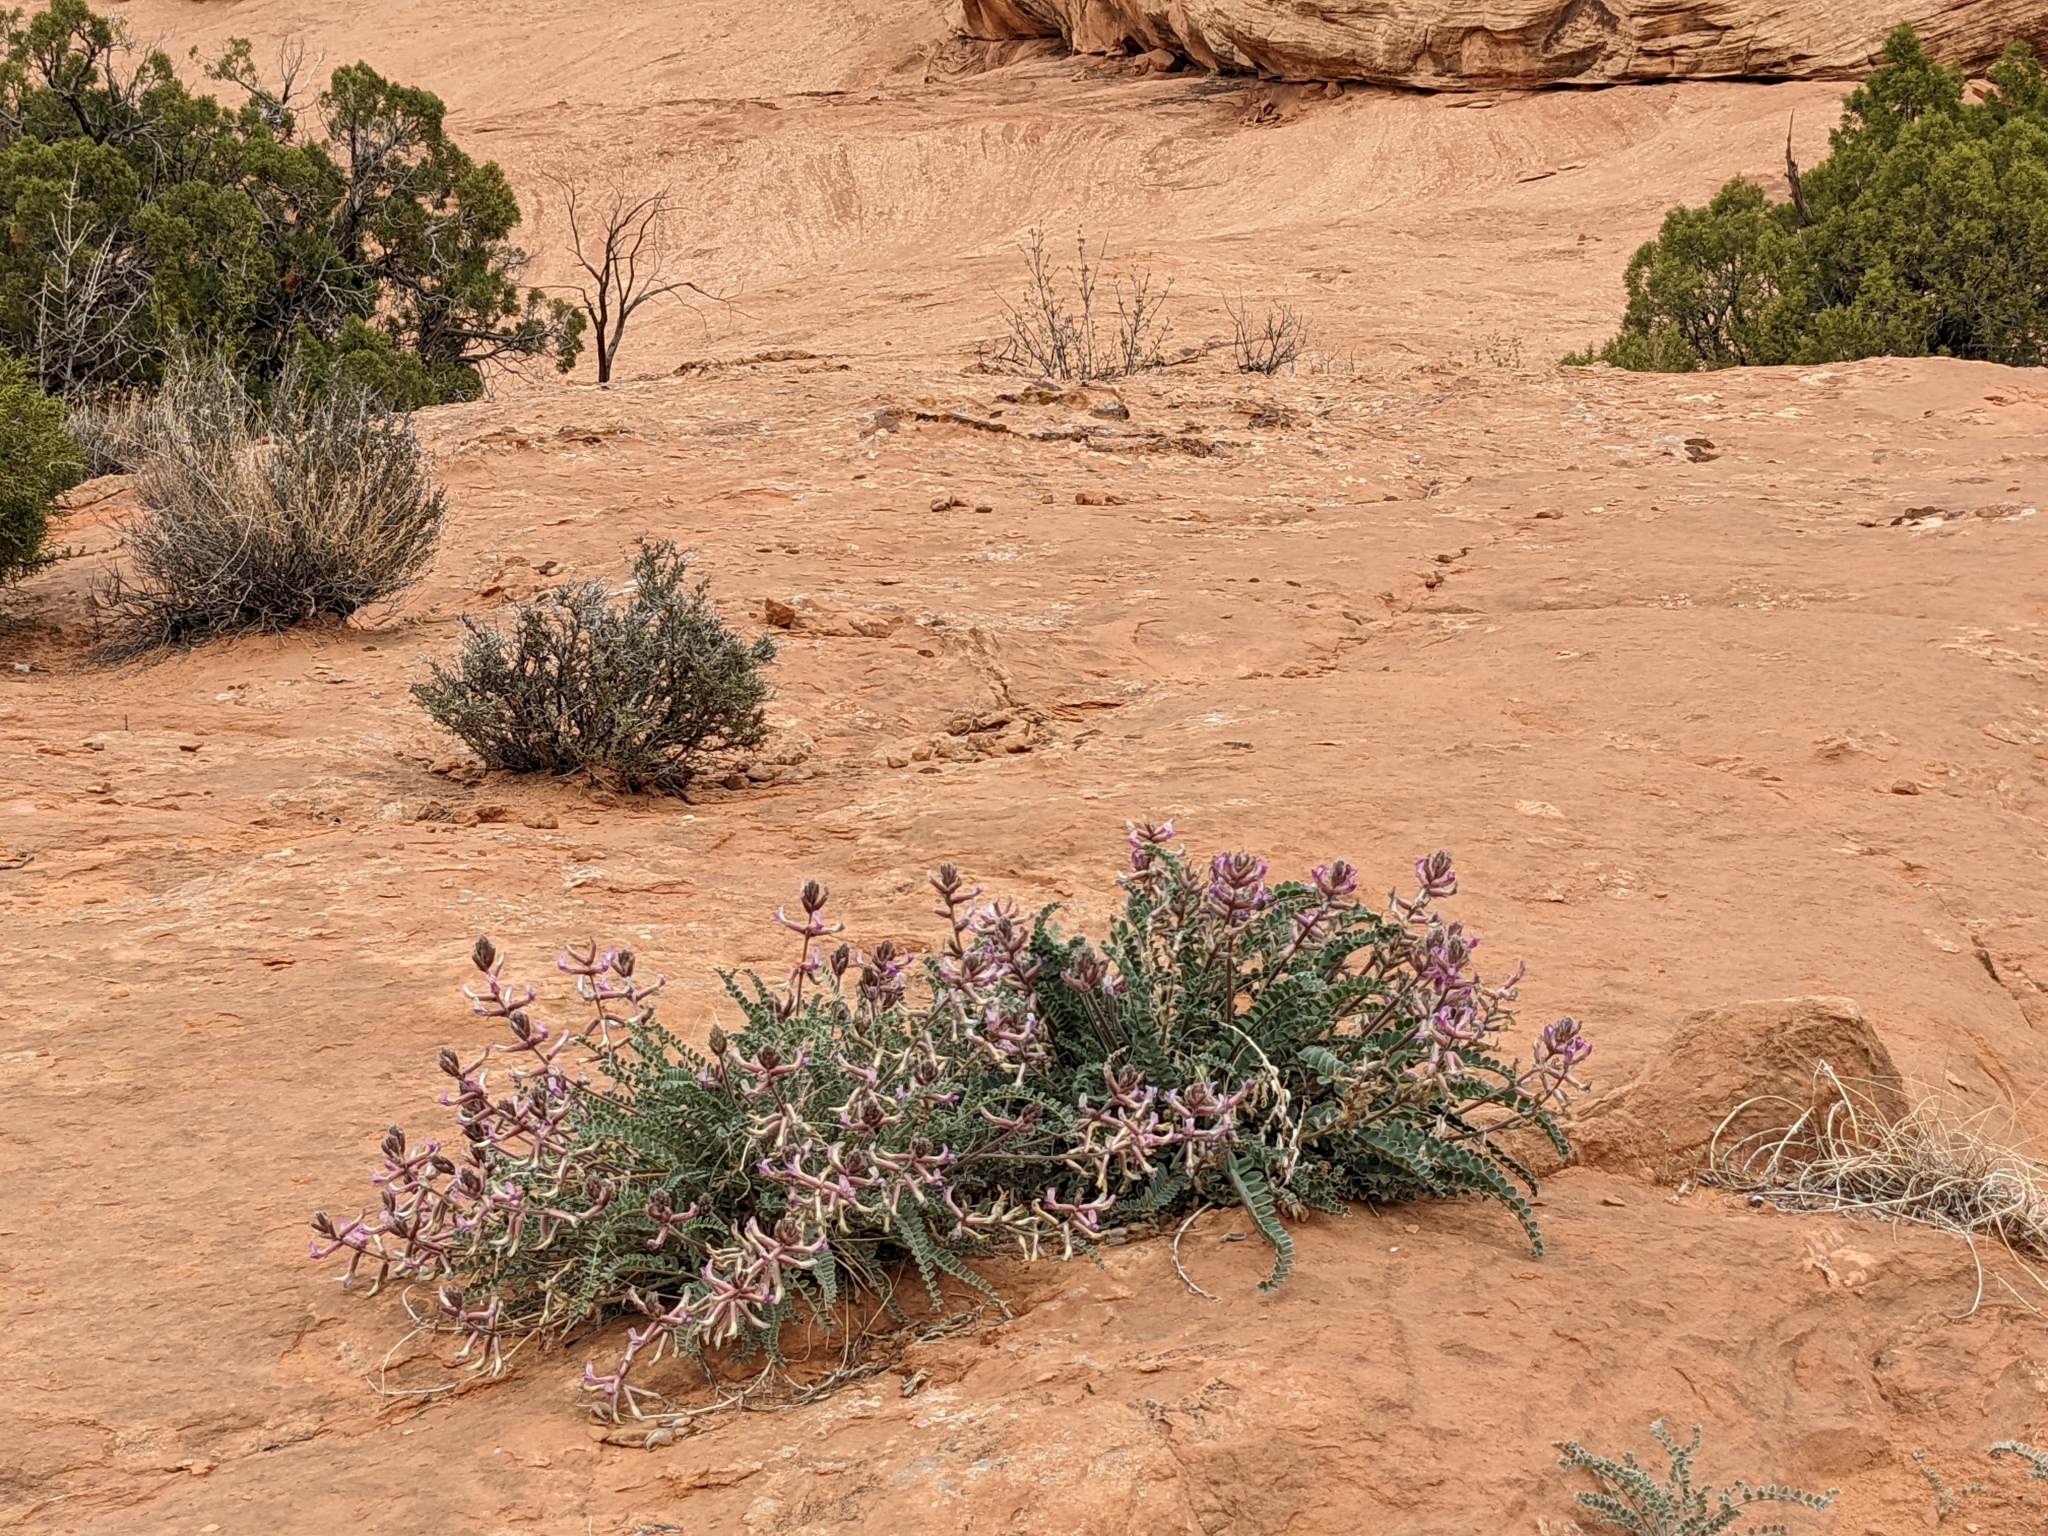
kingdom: Plantae
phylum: Tracheophyta
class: Magnoliopsida
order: Fabales
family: Fabaceae
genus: Astragalus
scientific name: Astragalus mollissimus
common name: Woolly locoweed
